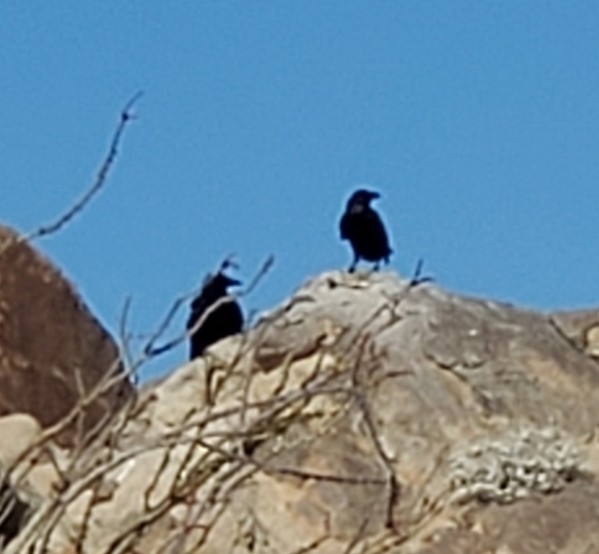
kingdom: Animalia
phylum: Chordata
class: Aves
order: Passeriformes
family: Corvidae
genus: Corvus
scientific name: Corvus corax
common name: Common raven
